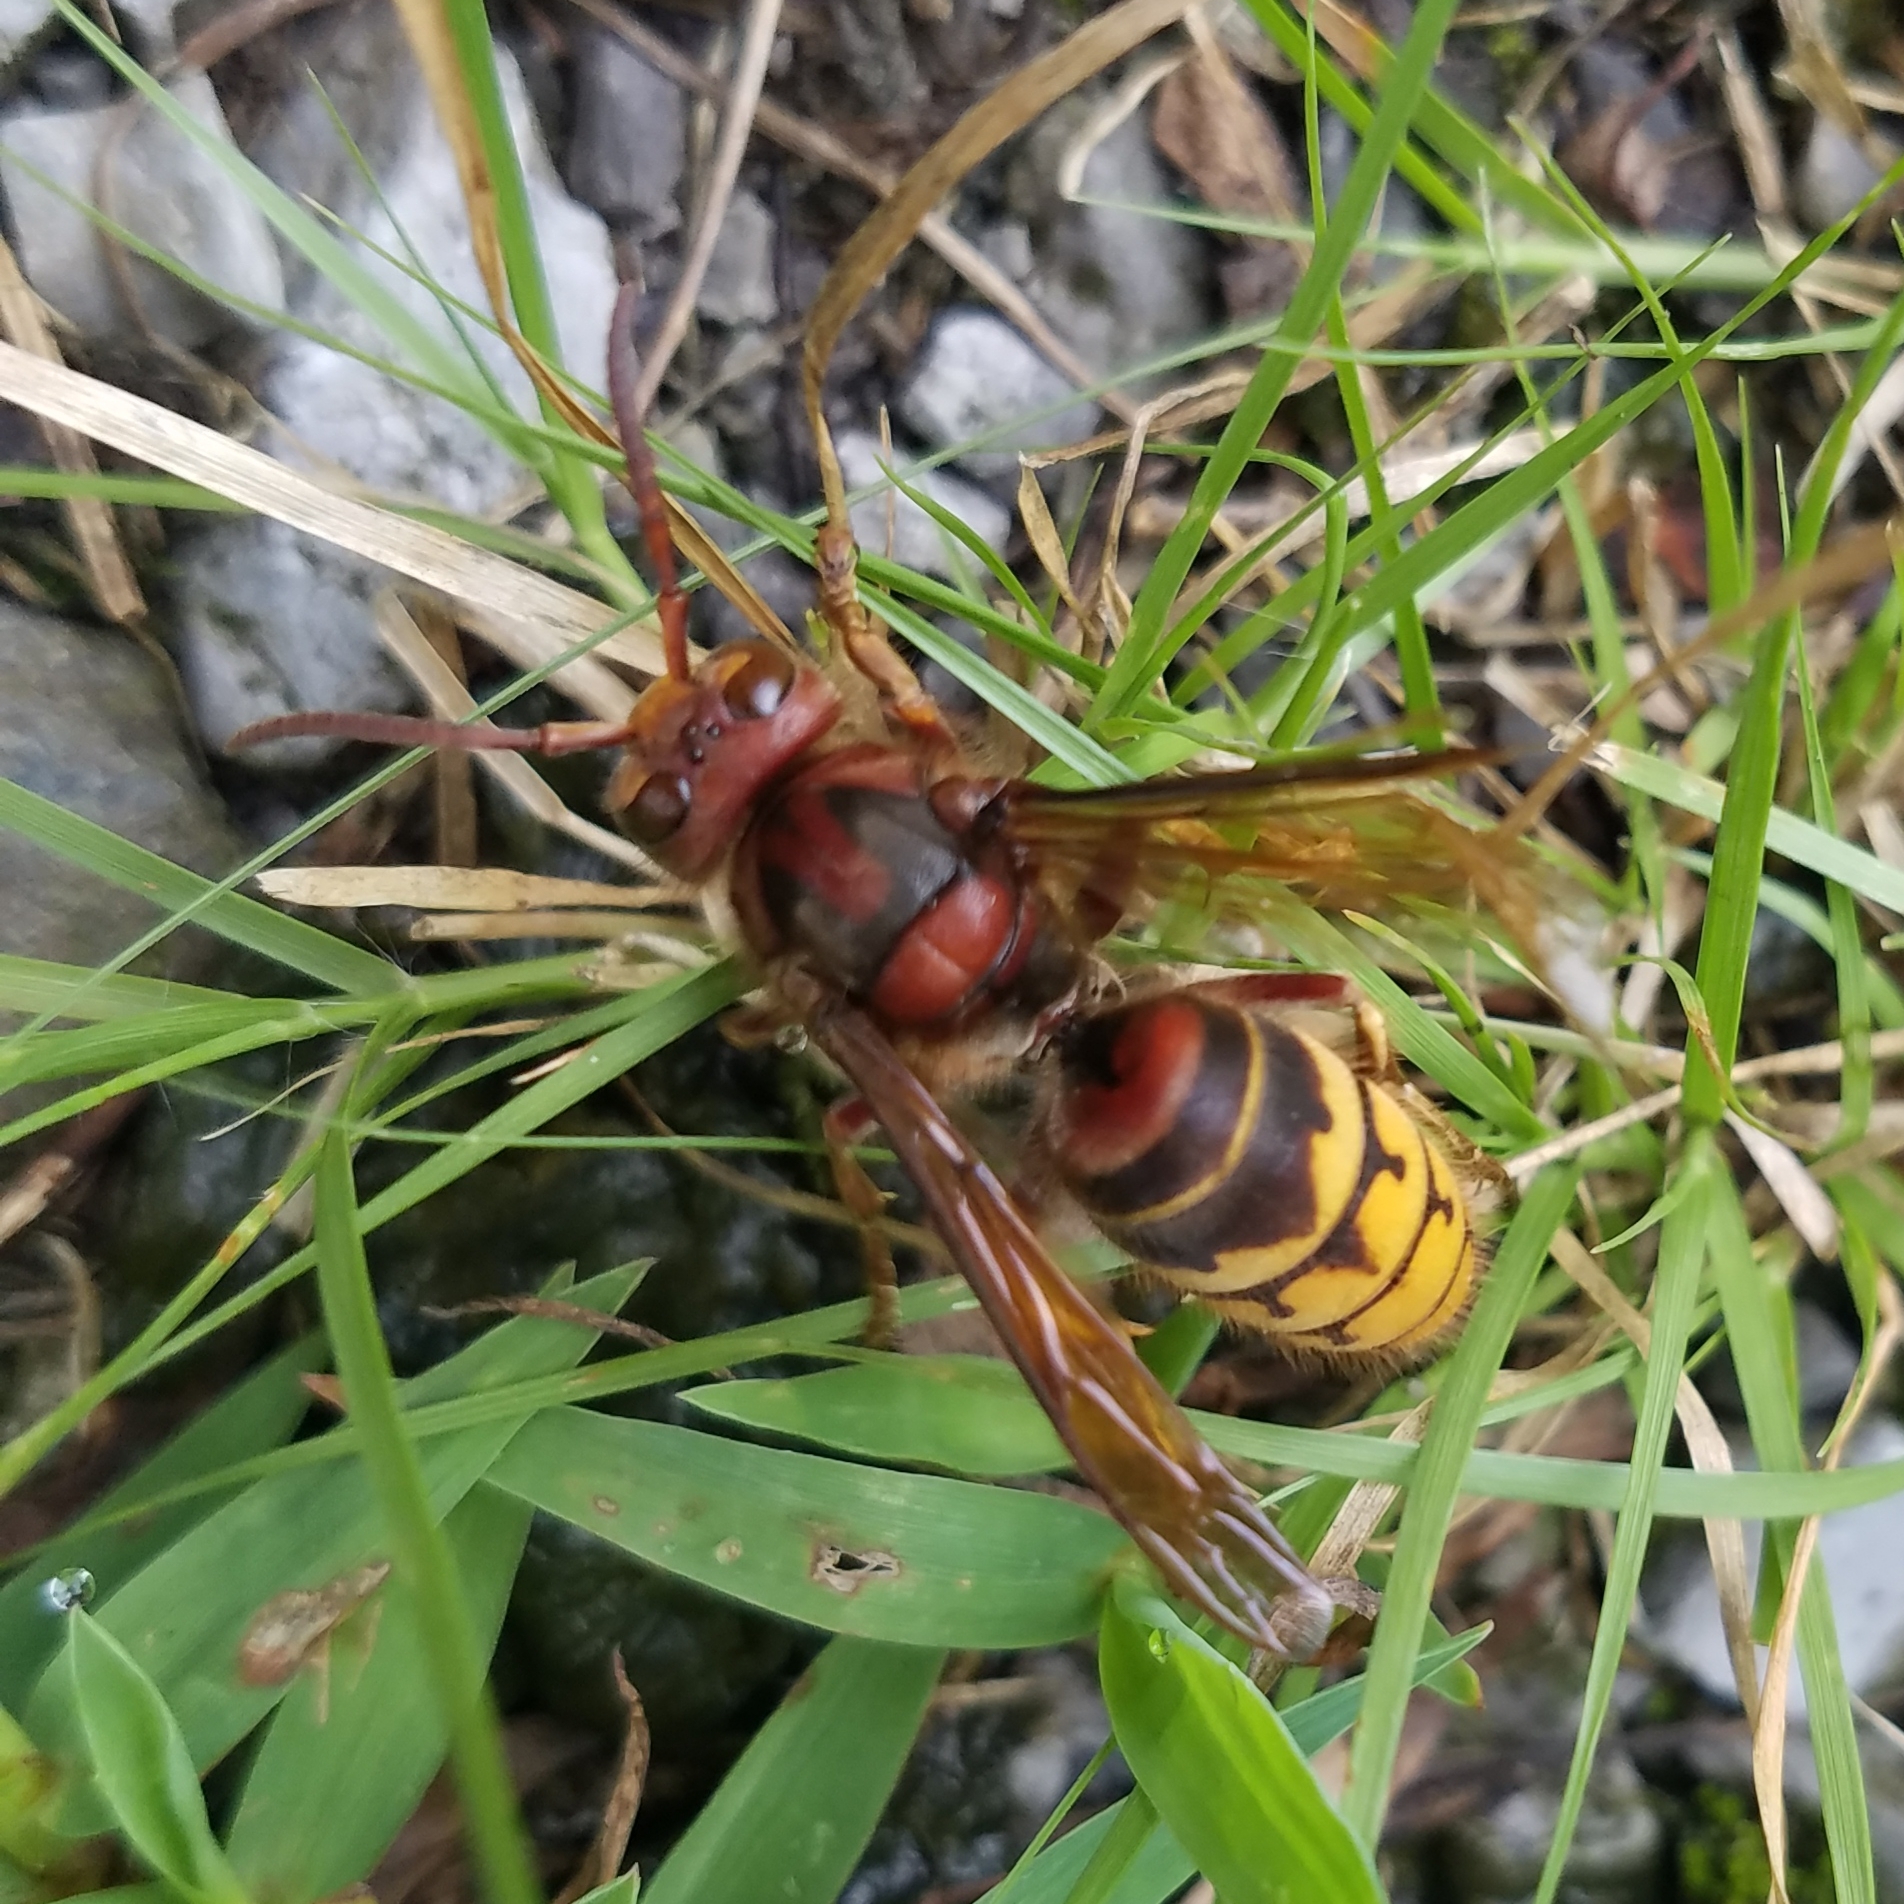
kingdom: Animalia
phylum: Arthropoda
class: Insecta
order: Hymenoptera
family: Vespidae
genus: Vespa
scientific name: Vespa crabro
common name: Hornet
